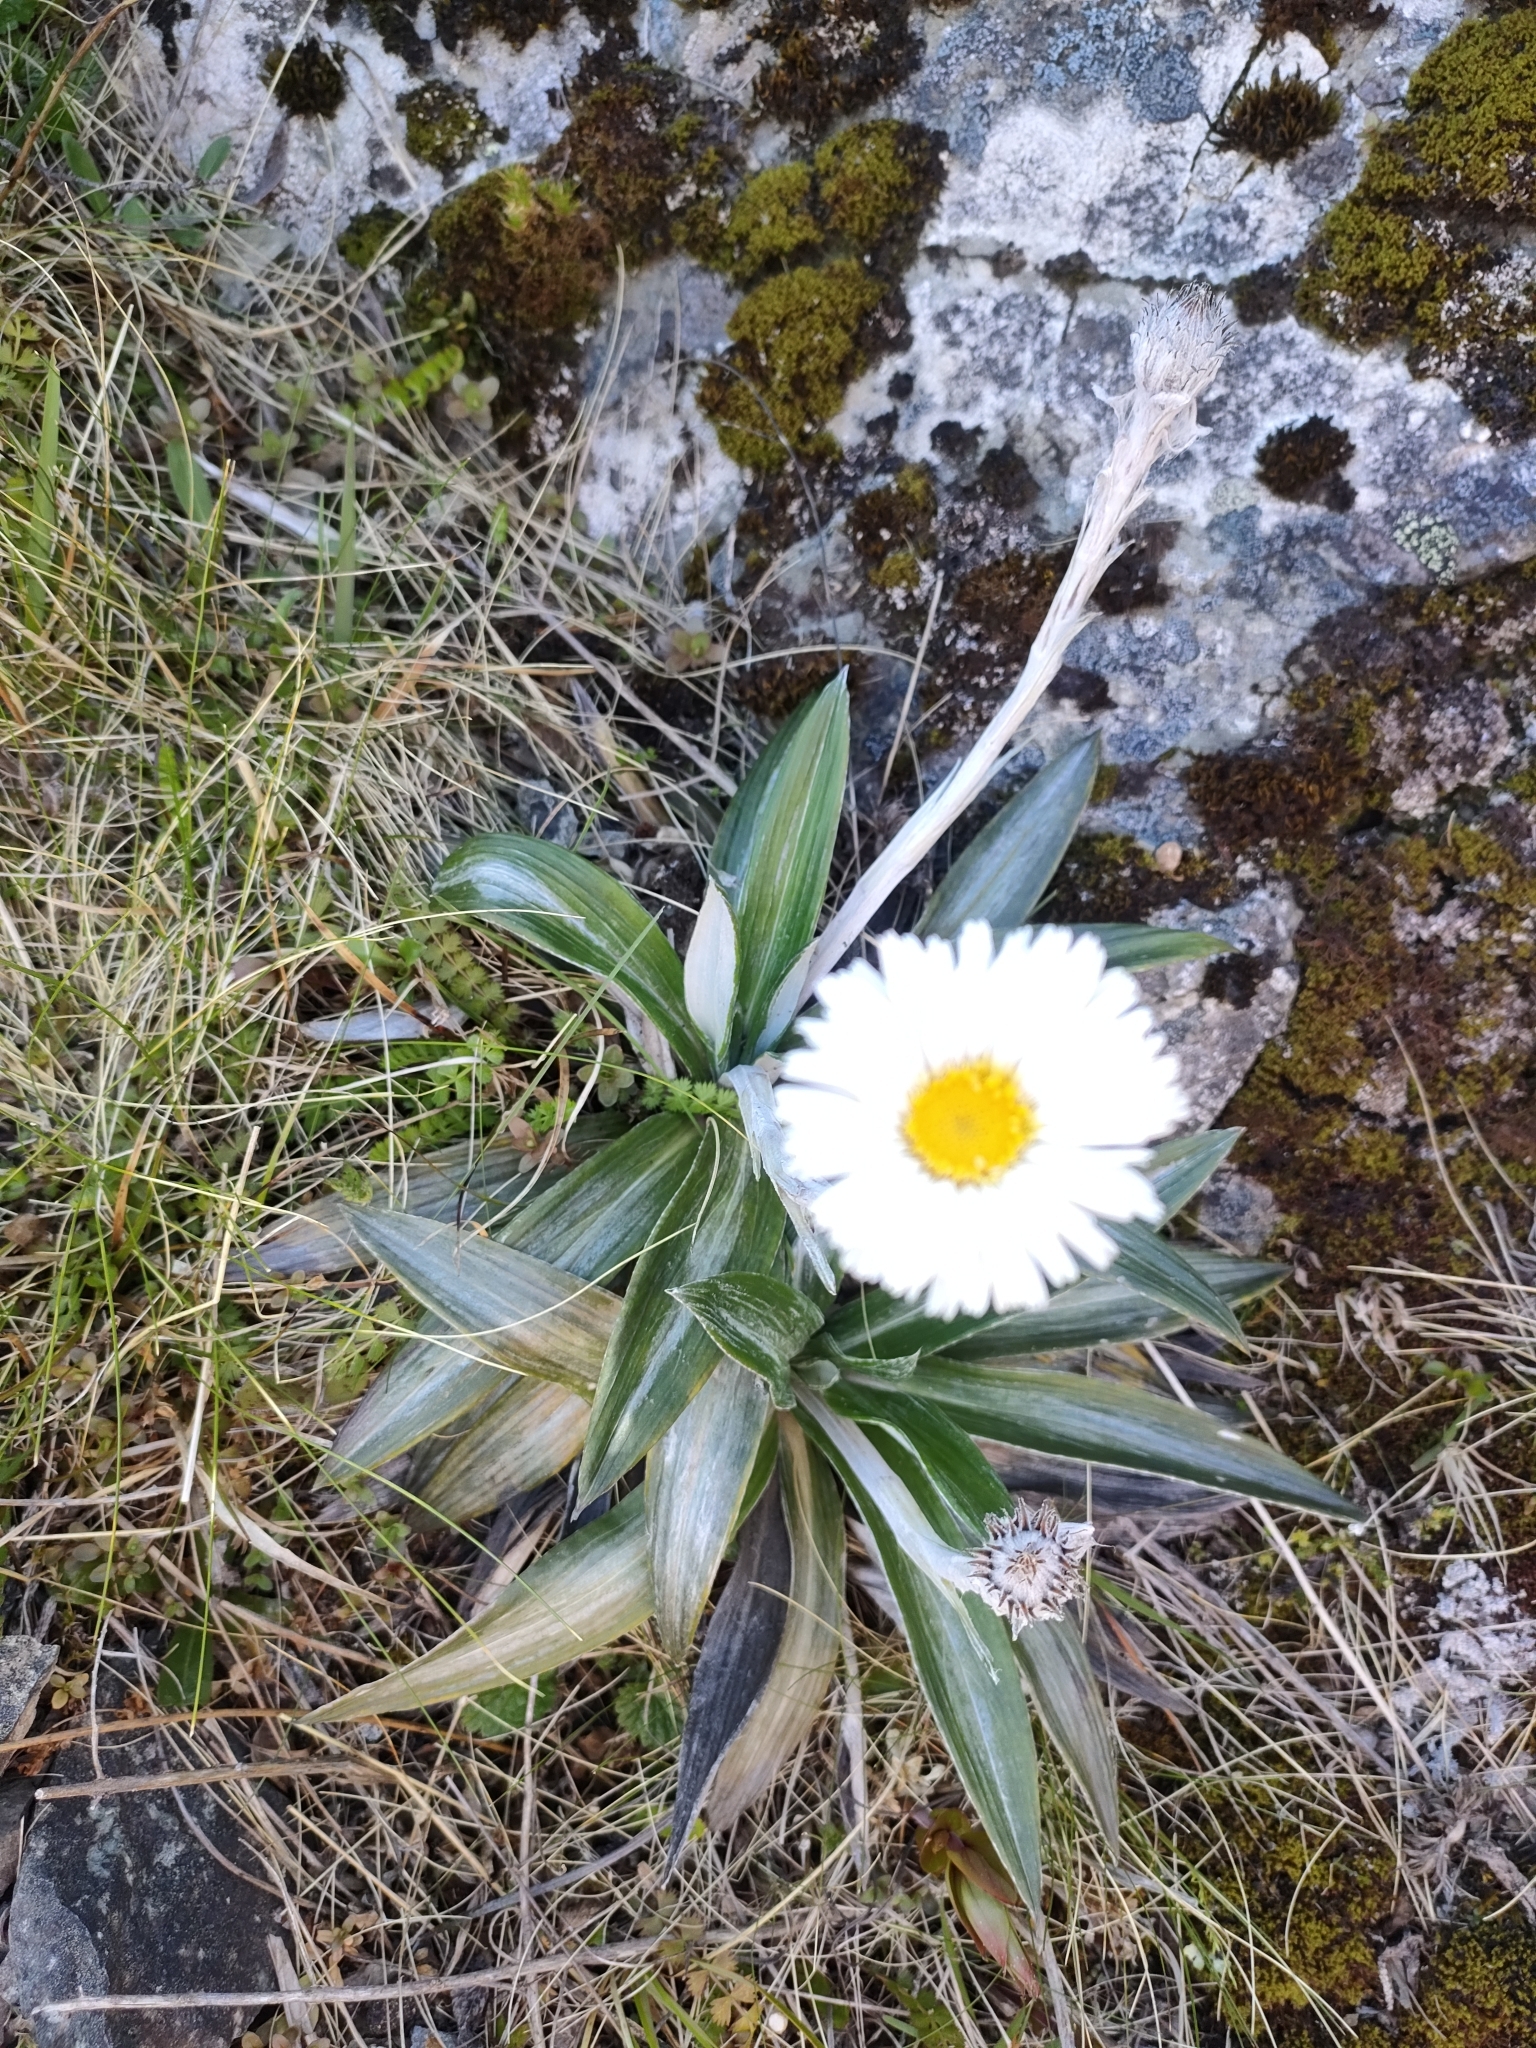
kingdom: Plantae
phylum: Tracheophyta
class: Magnoliopsida
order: Asterales
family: Asteraceae
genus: Celmisia
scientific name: Celmisia semicordata
